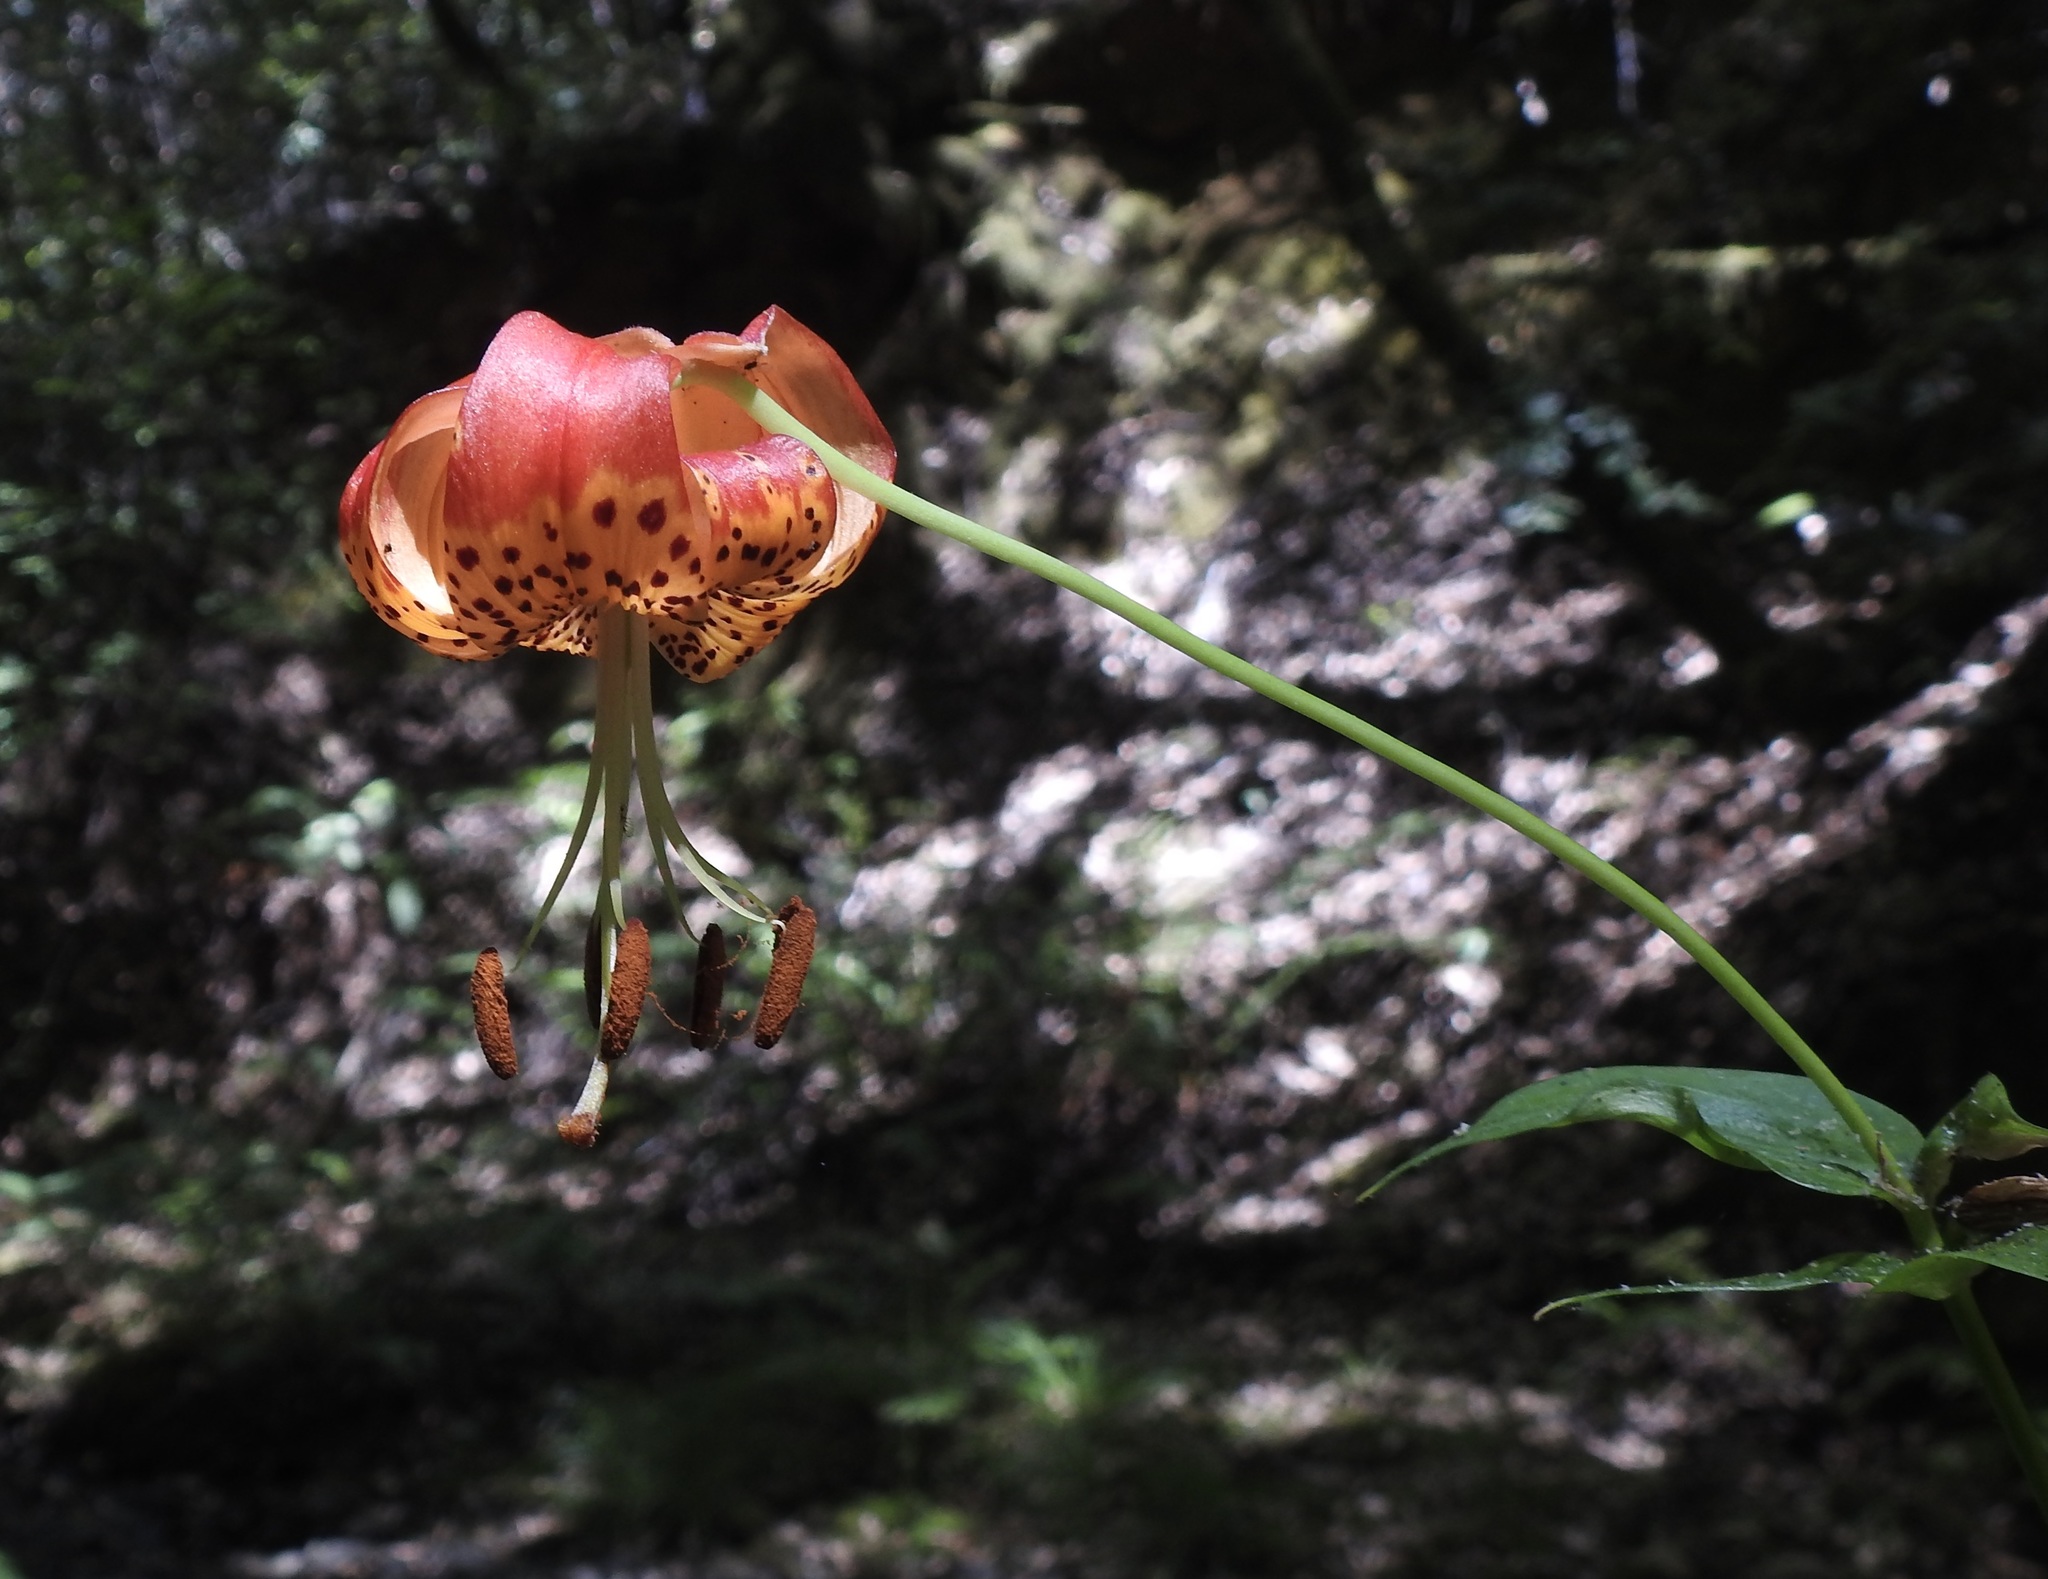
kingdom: Plantae
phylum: Tracheophyta
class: Liliopsida
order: Liliales
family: Liliaceae
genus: Lilium
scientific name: Lilium pardalinum
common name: Panther lily
